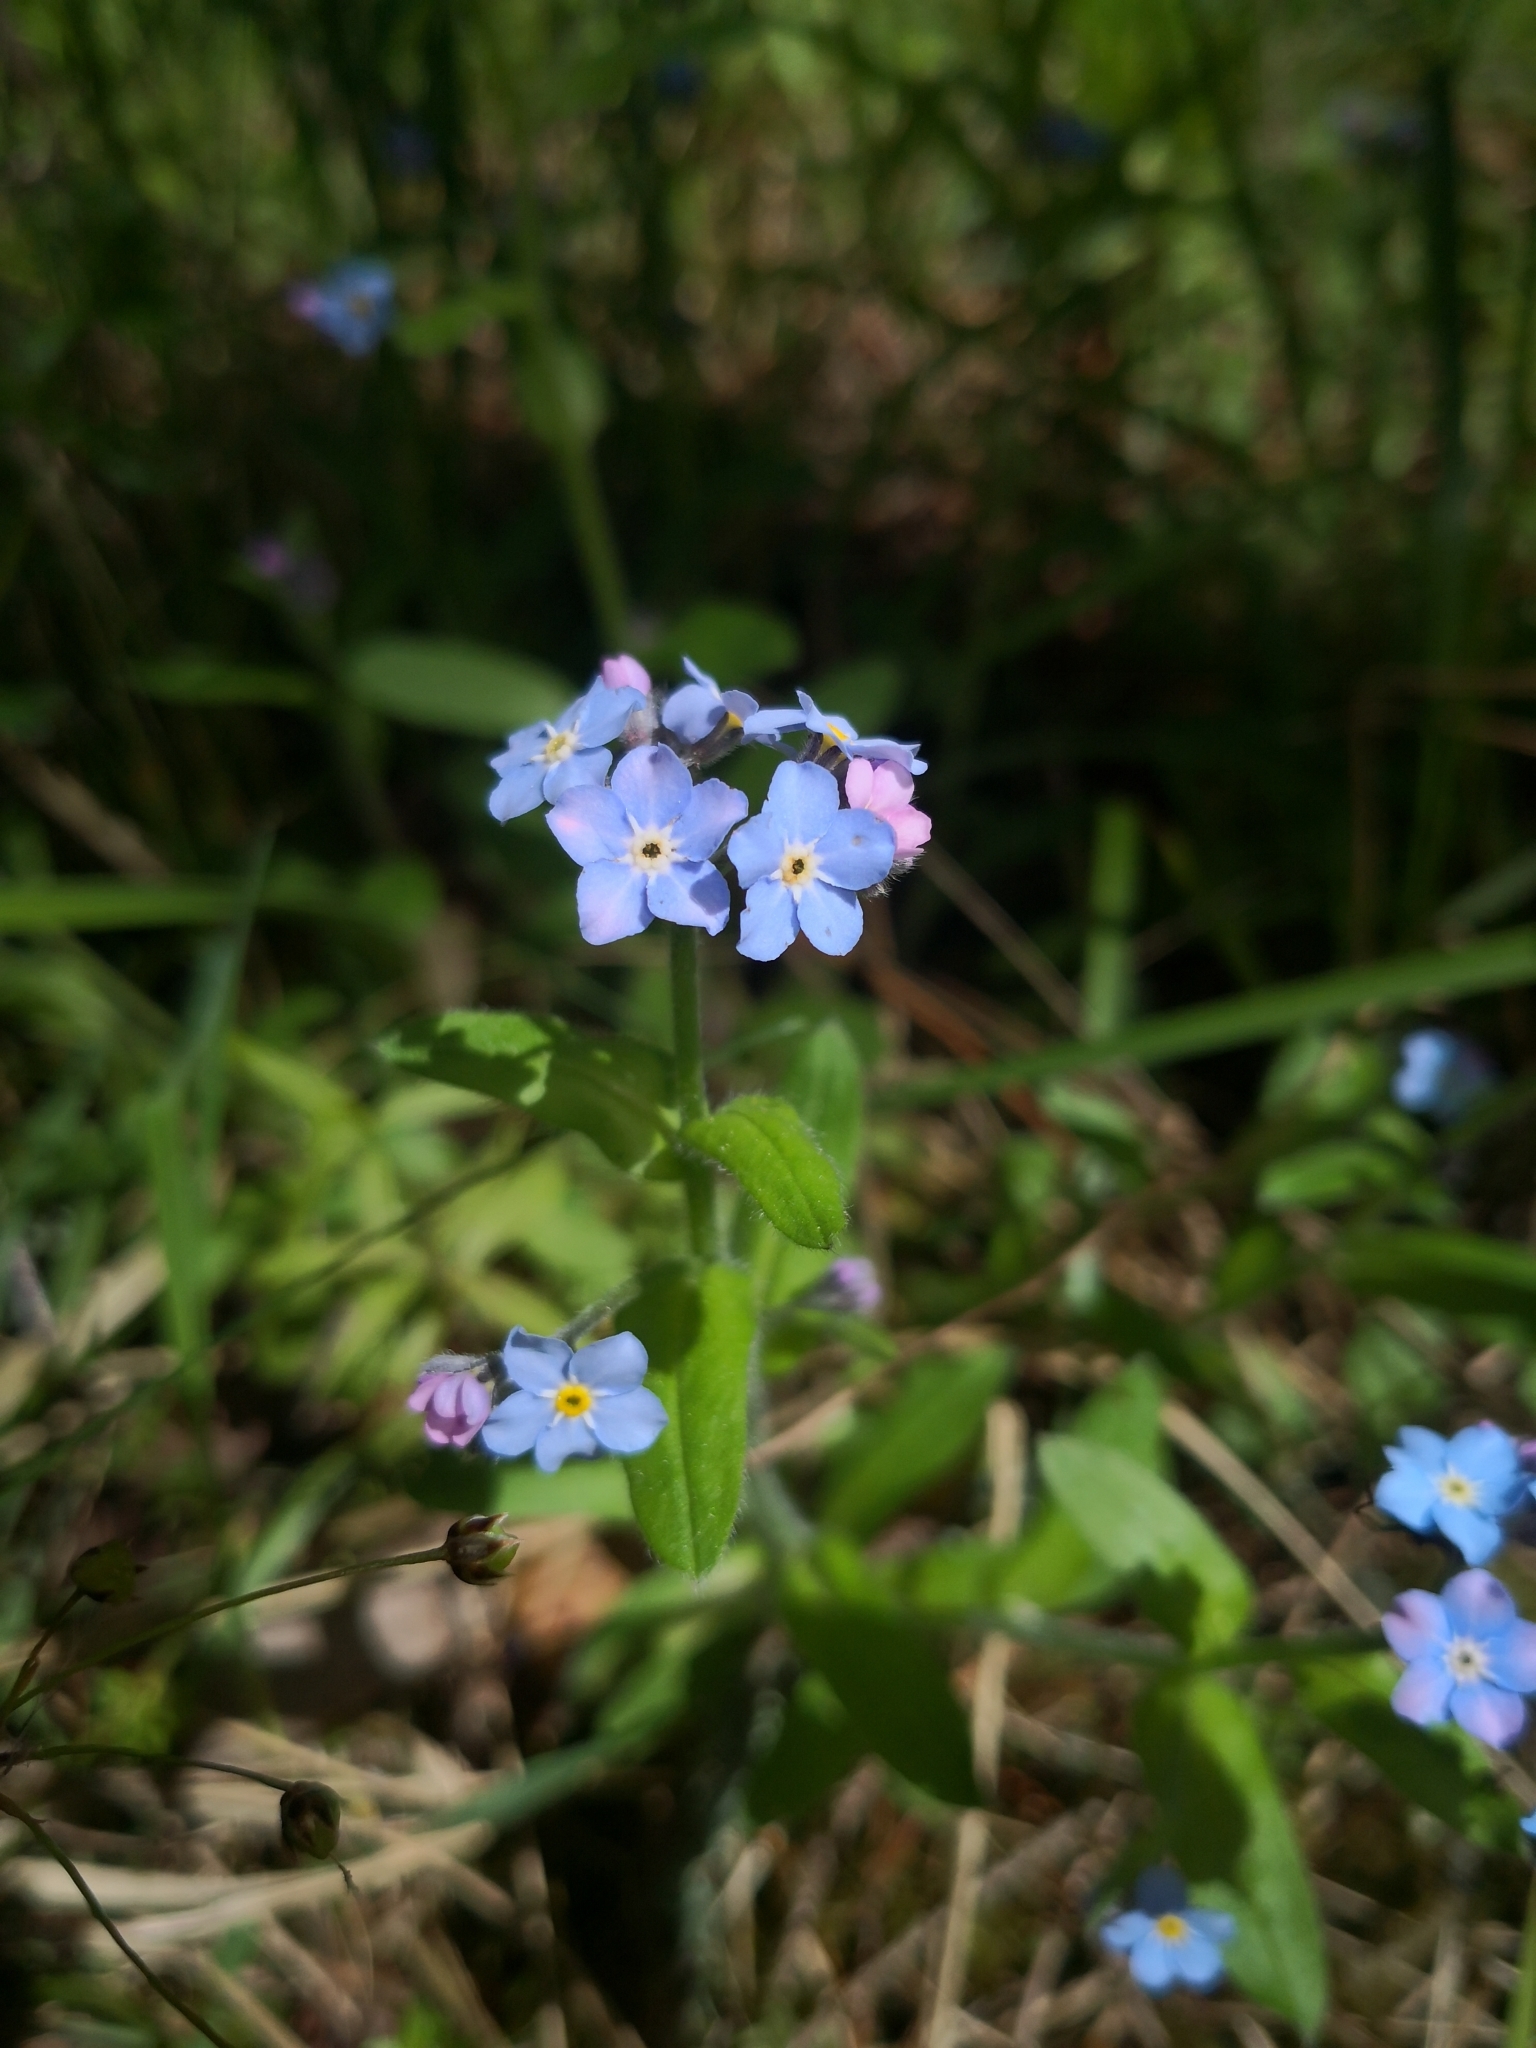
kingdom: Plantae
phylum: Tracheophyta
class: Magnoliopsida
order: Boraginales
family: Boraginaceae
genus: Myosotis
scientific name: Myosotis sylvatica
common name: Wood forget-me-not
